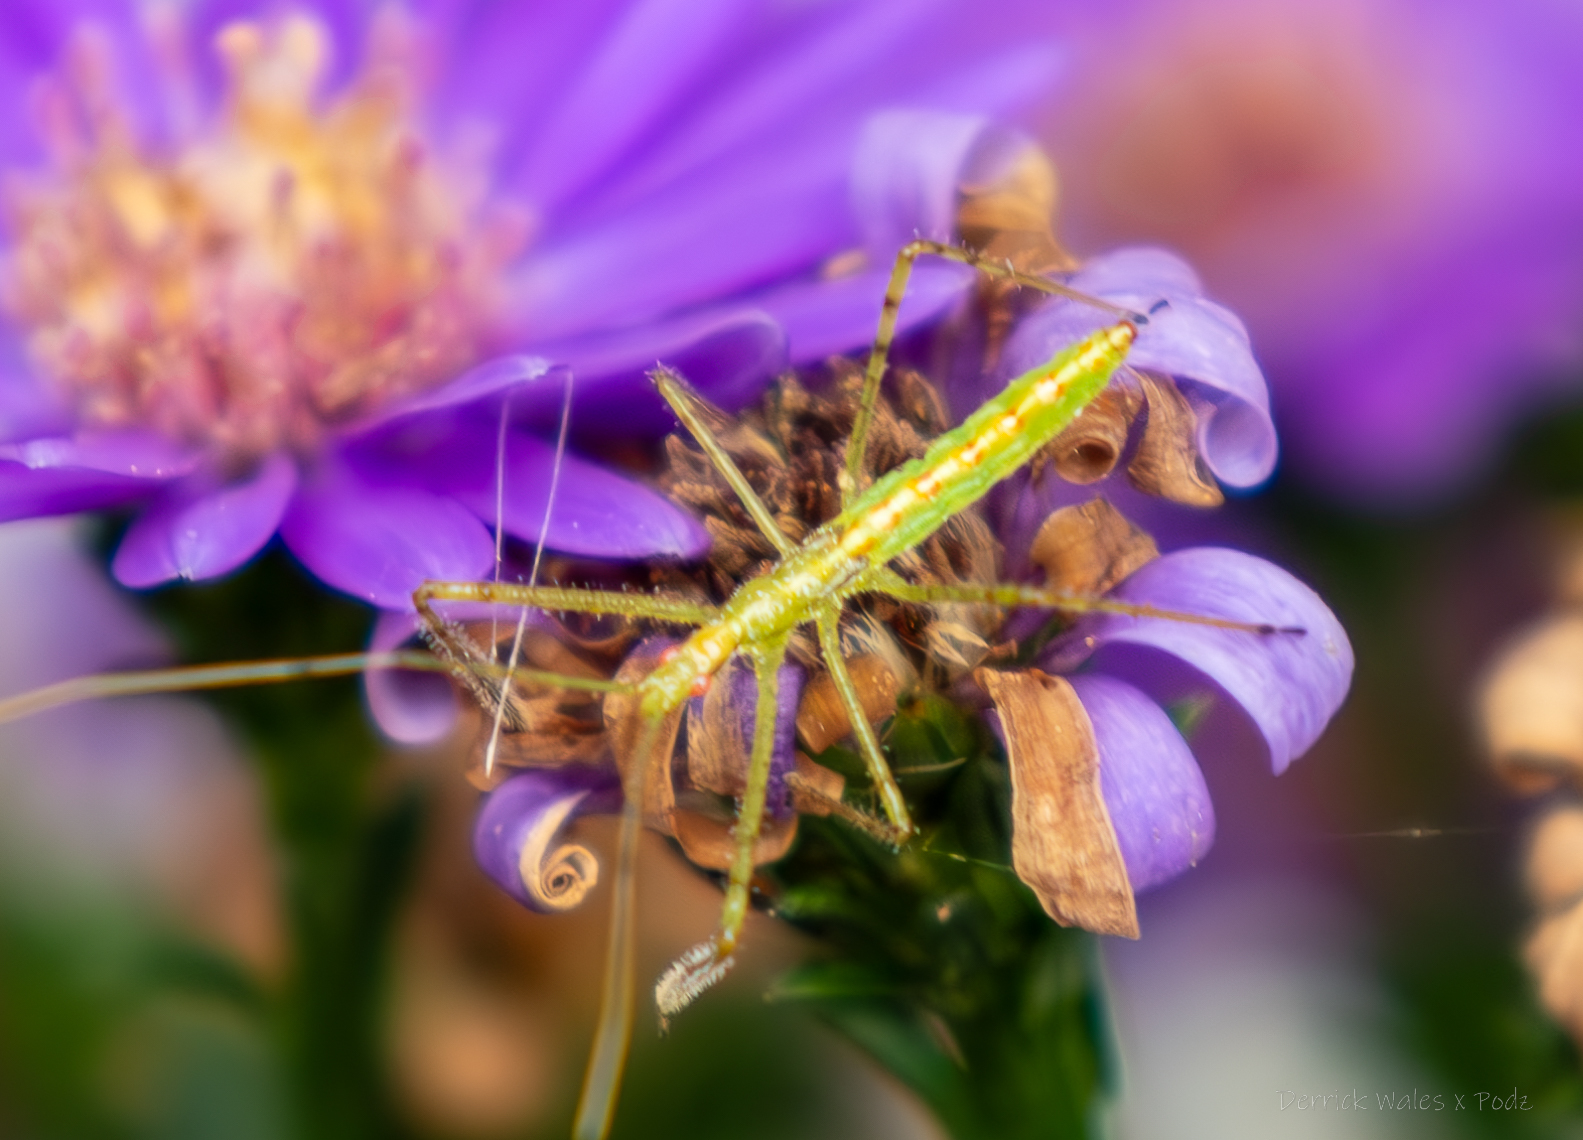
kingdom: Animalia
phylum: Arthropoda
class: Insecta
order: Hemiptera
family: Reduviidae
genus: Zelus
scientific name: Zelus luridus
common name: Pale green assassin bug
